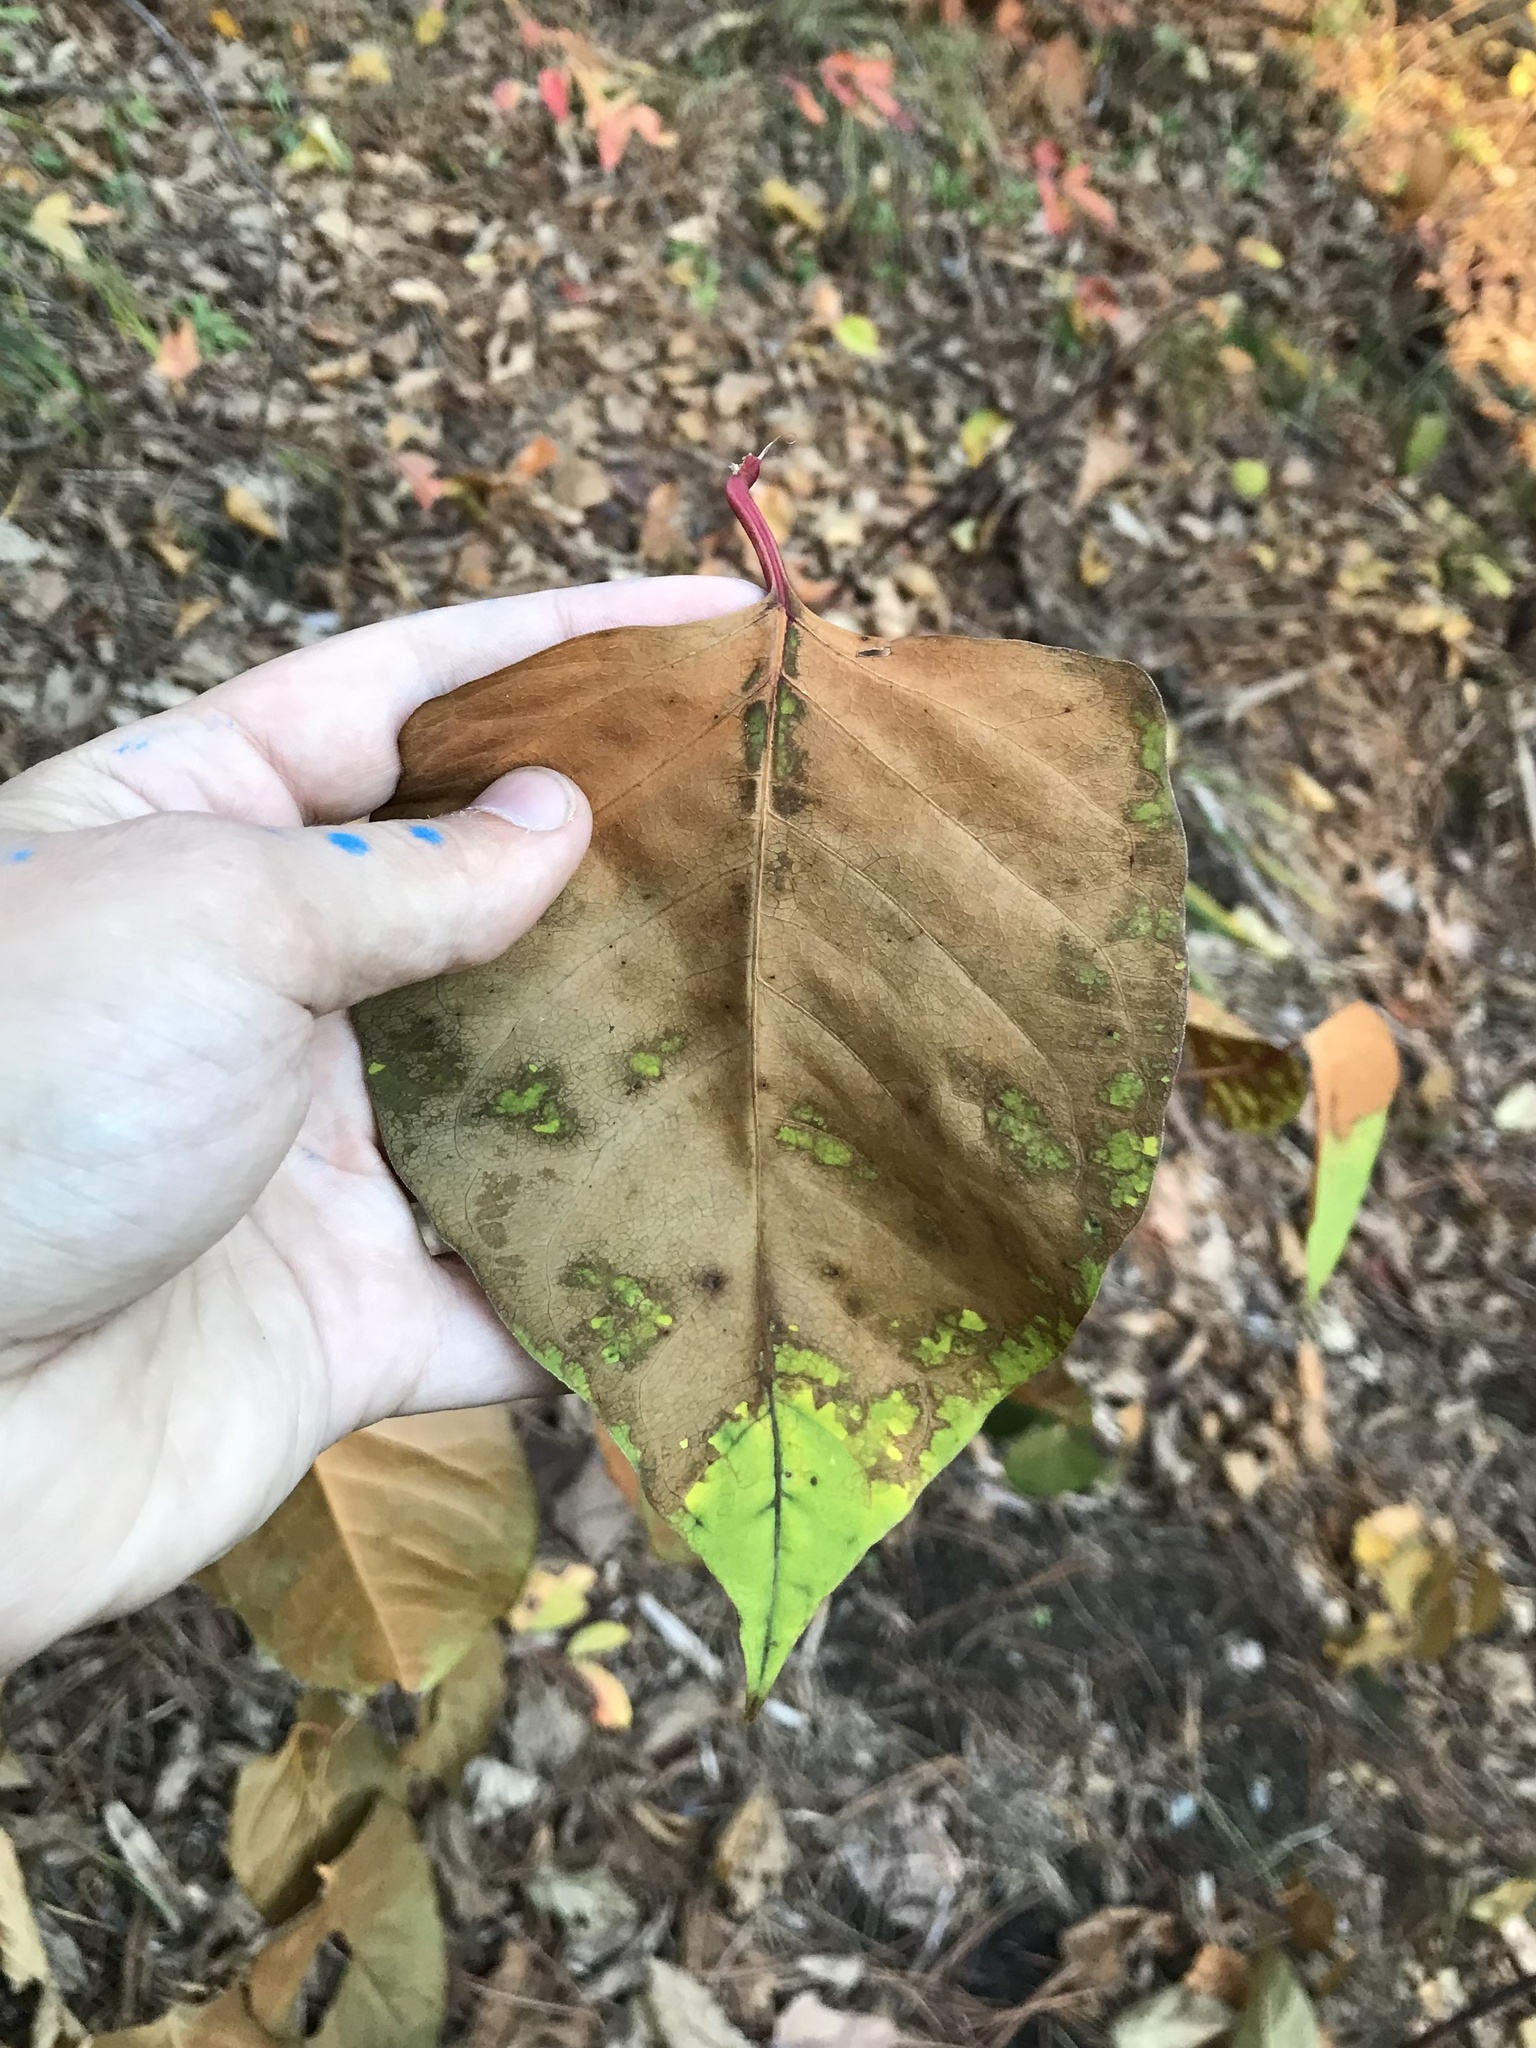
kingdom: Plantae
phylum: Tracheophyta
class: Magnoliopsida
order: Caryophyllales
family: Polygonaceae
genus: Reynoutria
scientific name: Reynoutria japonica
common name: Japanese knotweed
